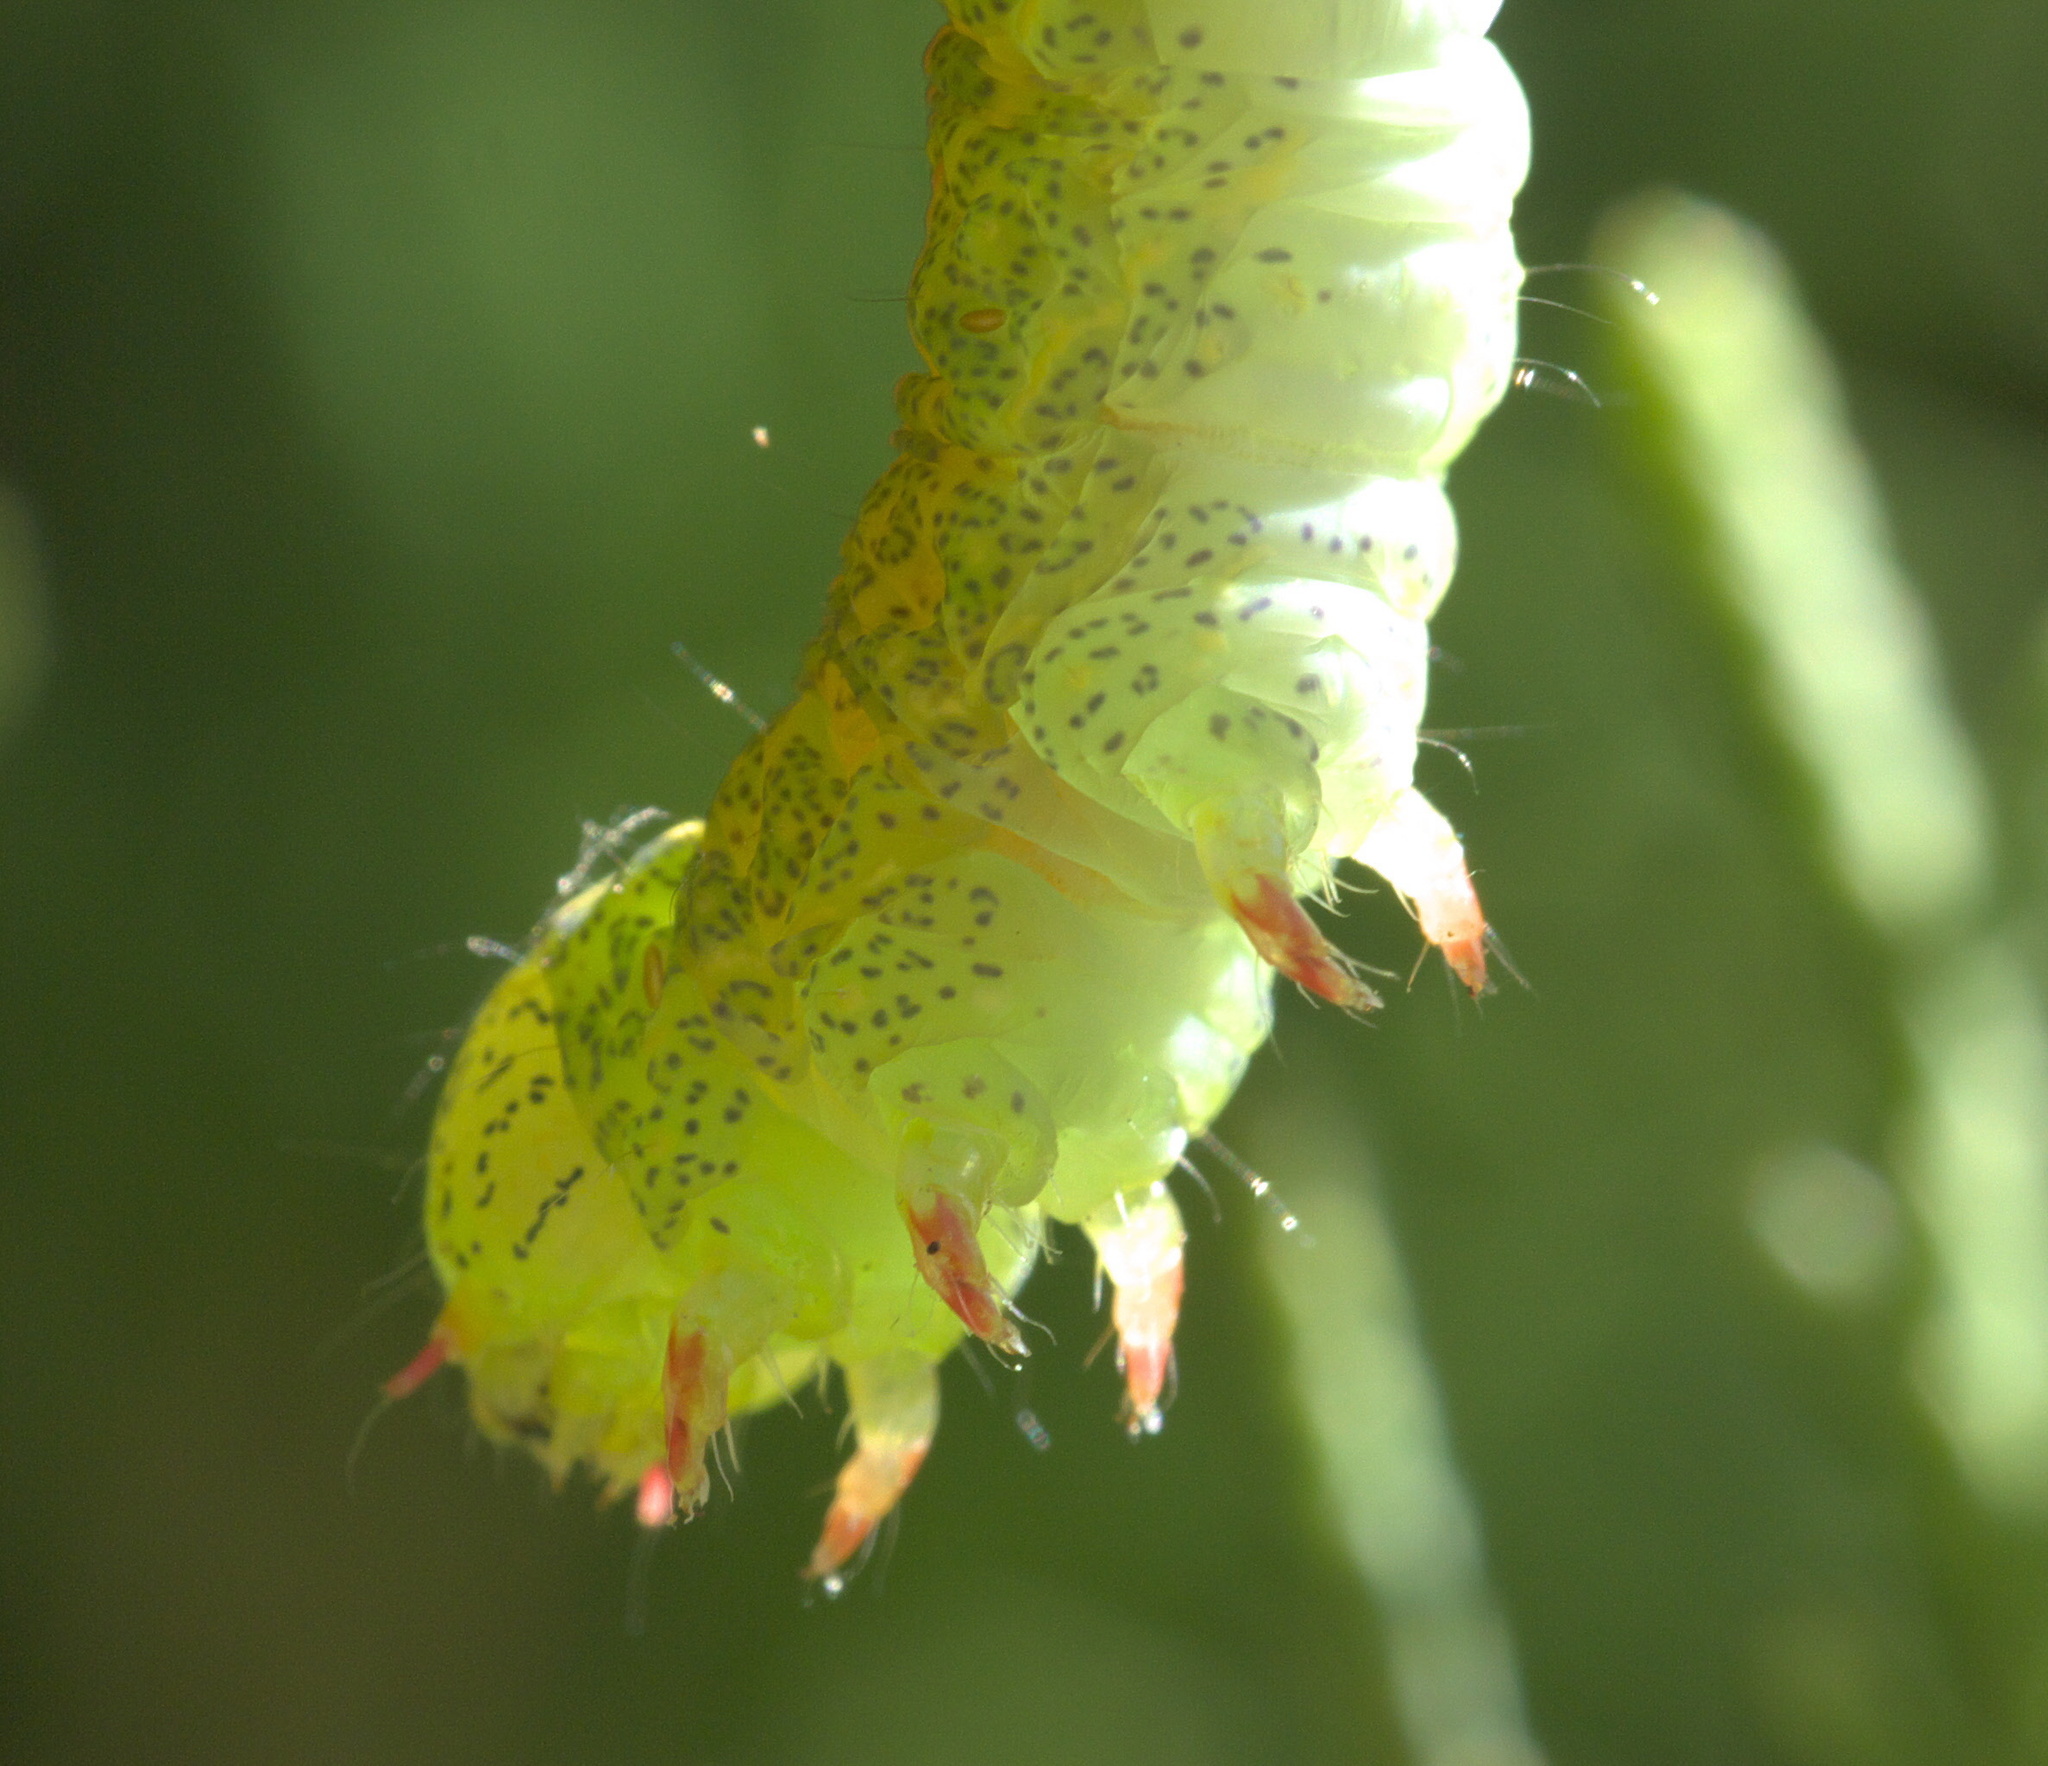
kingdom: Animalia
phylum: Arthropoda
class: Insecta
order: Lepidoptera
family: Erebidae
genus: Panopoda
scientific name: Panopoda rufimargo
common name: Red-lined panopoda moth
